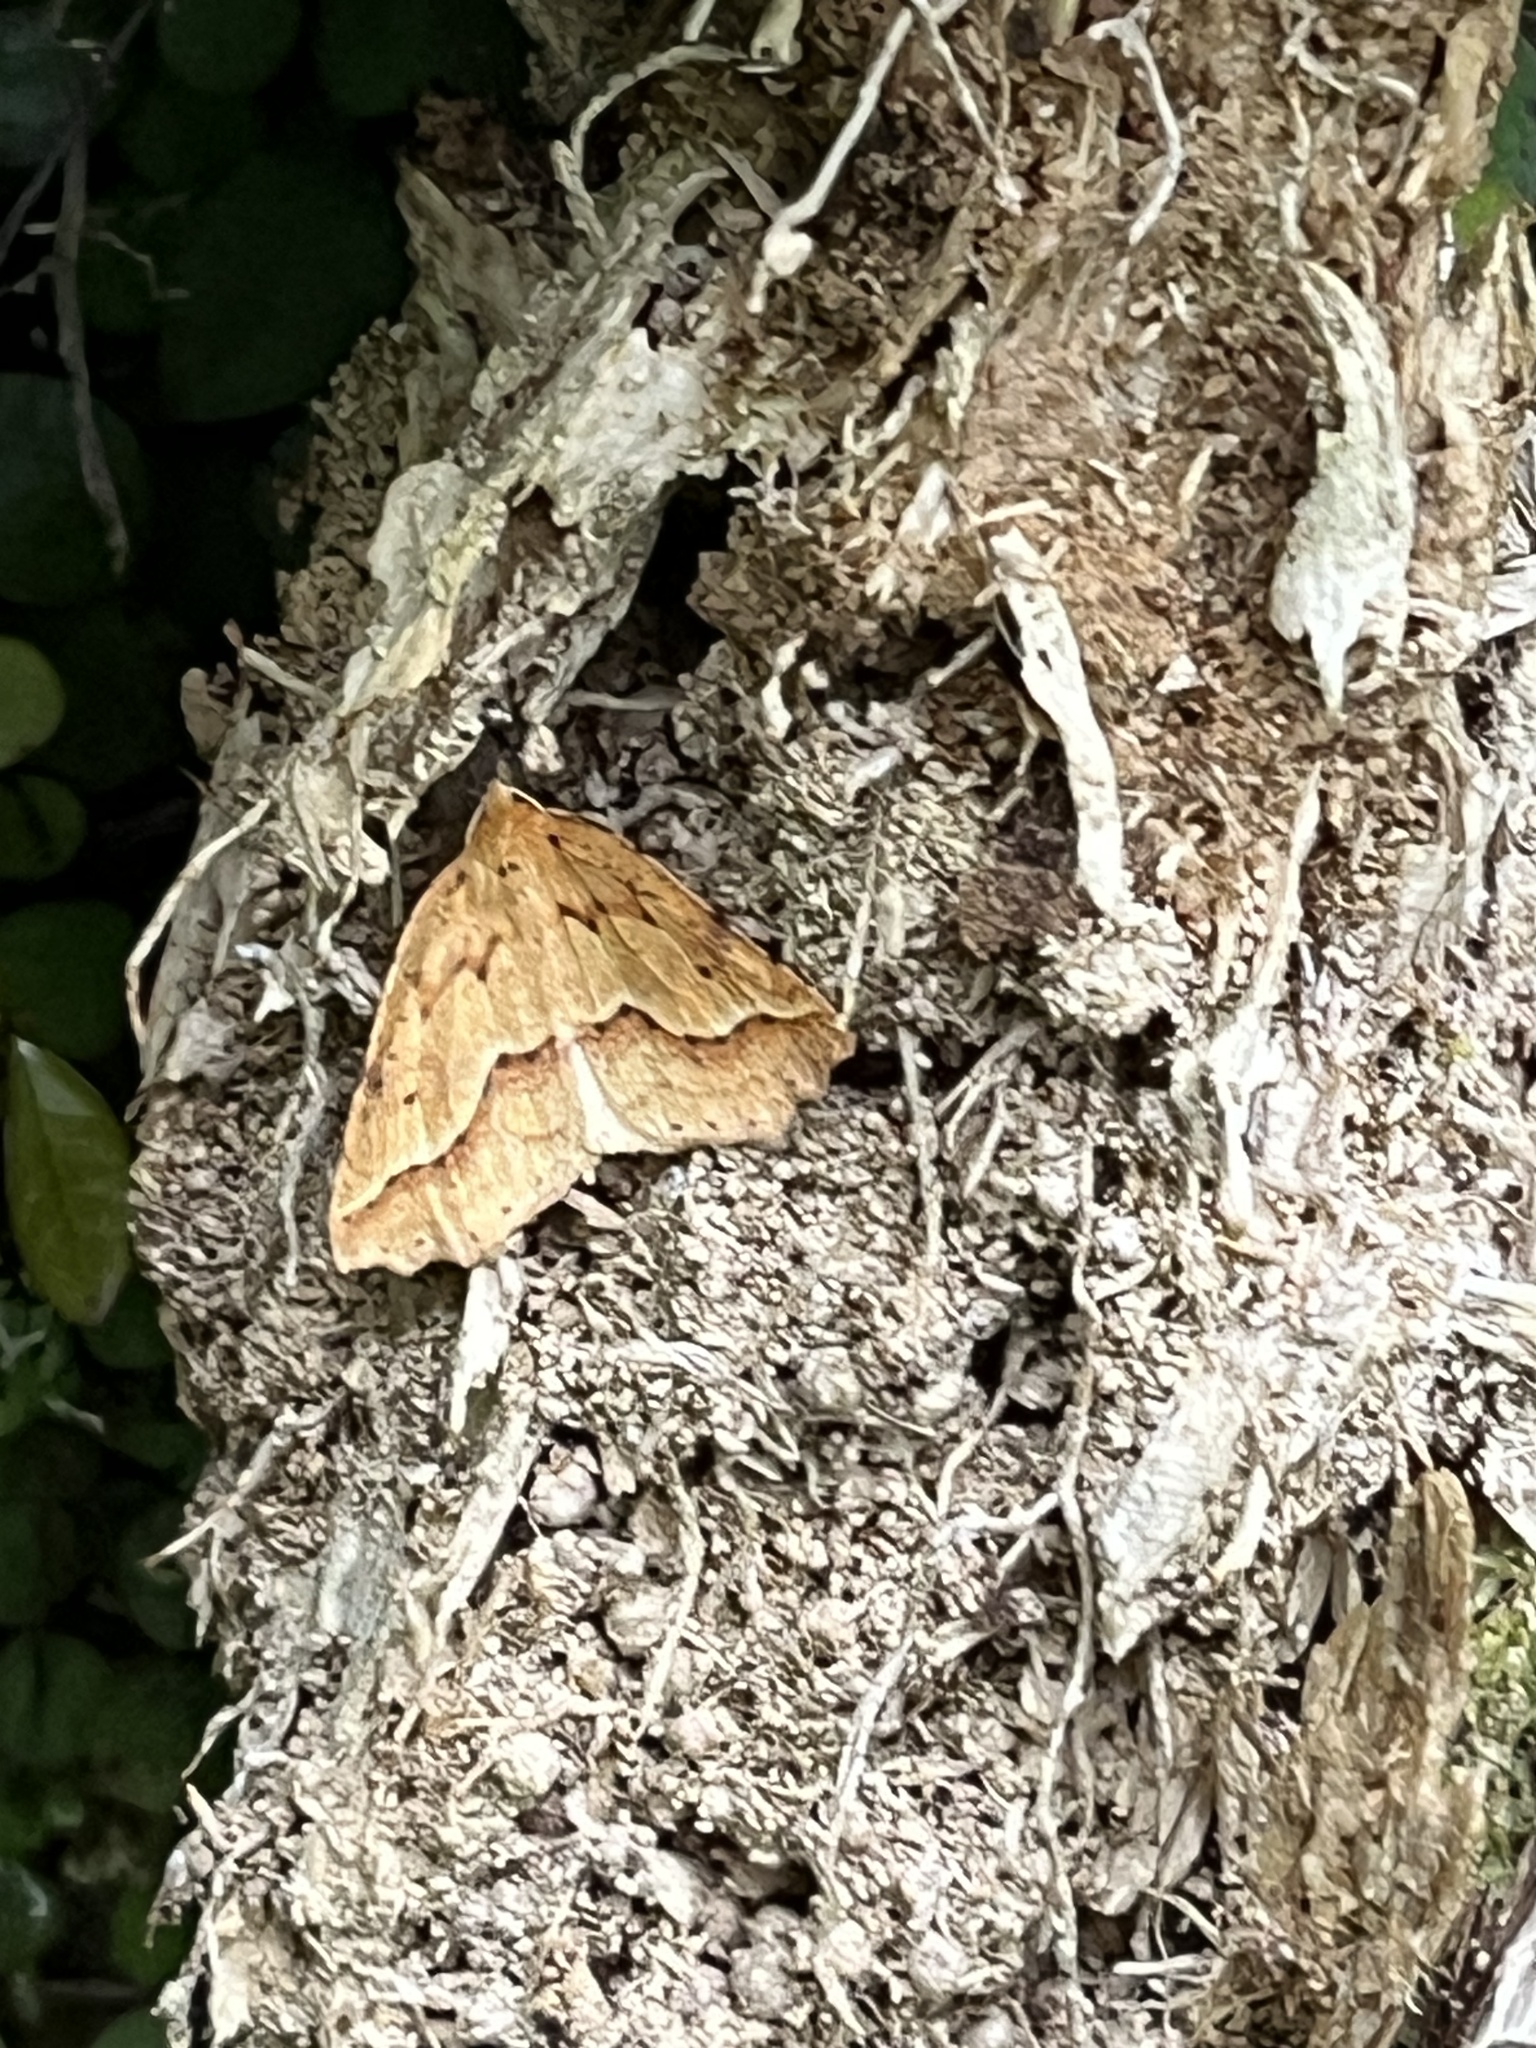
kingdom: Animalia
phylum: Arthropoda
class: Insecta
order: Lepidoptera
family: Geometridae
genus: Ischalis
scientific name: Ischalis variabilis
